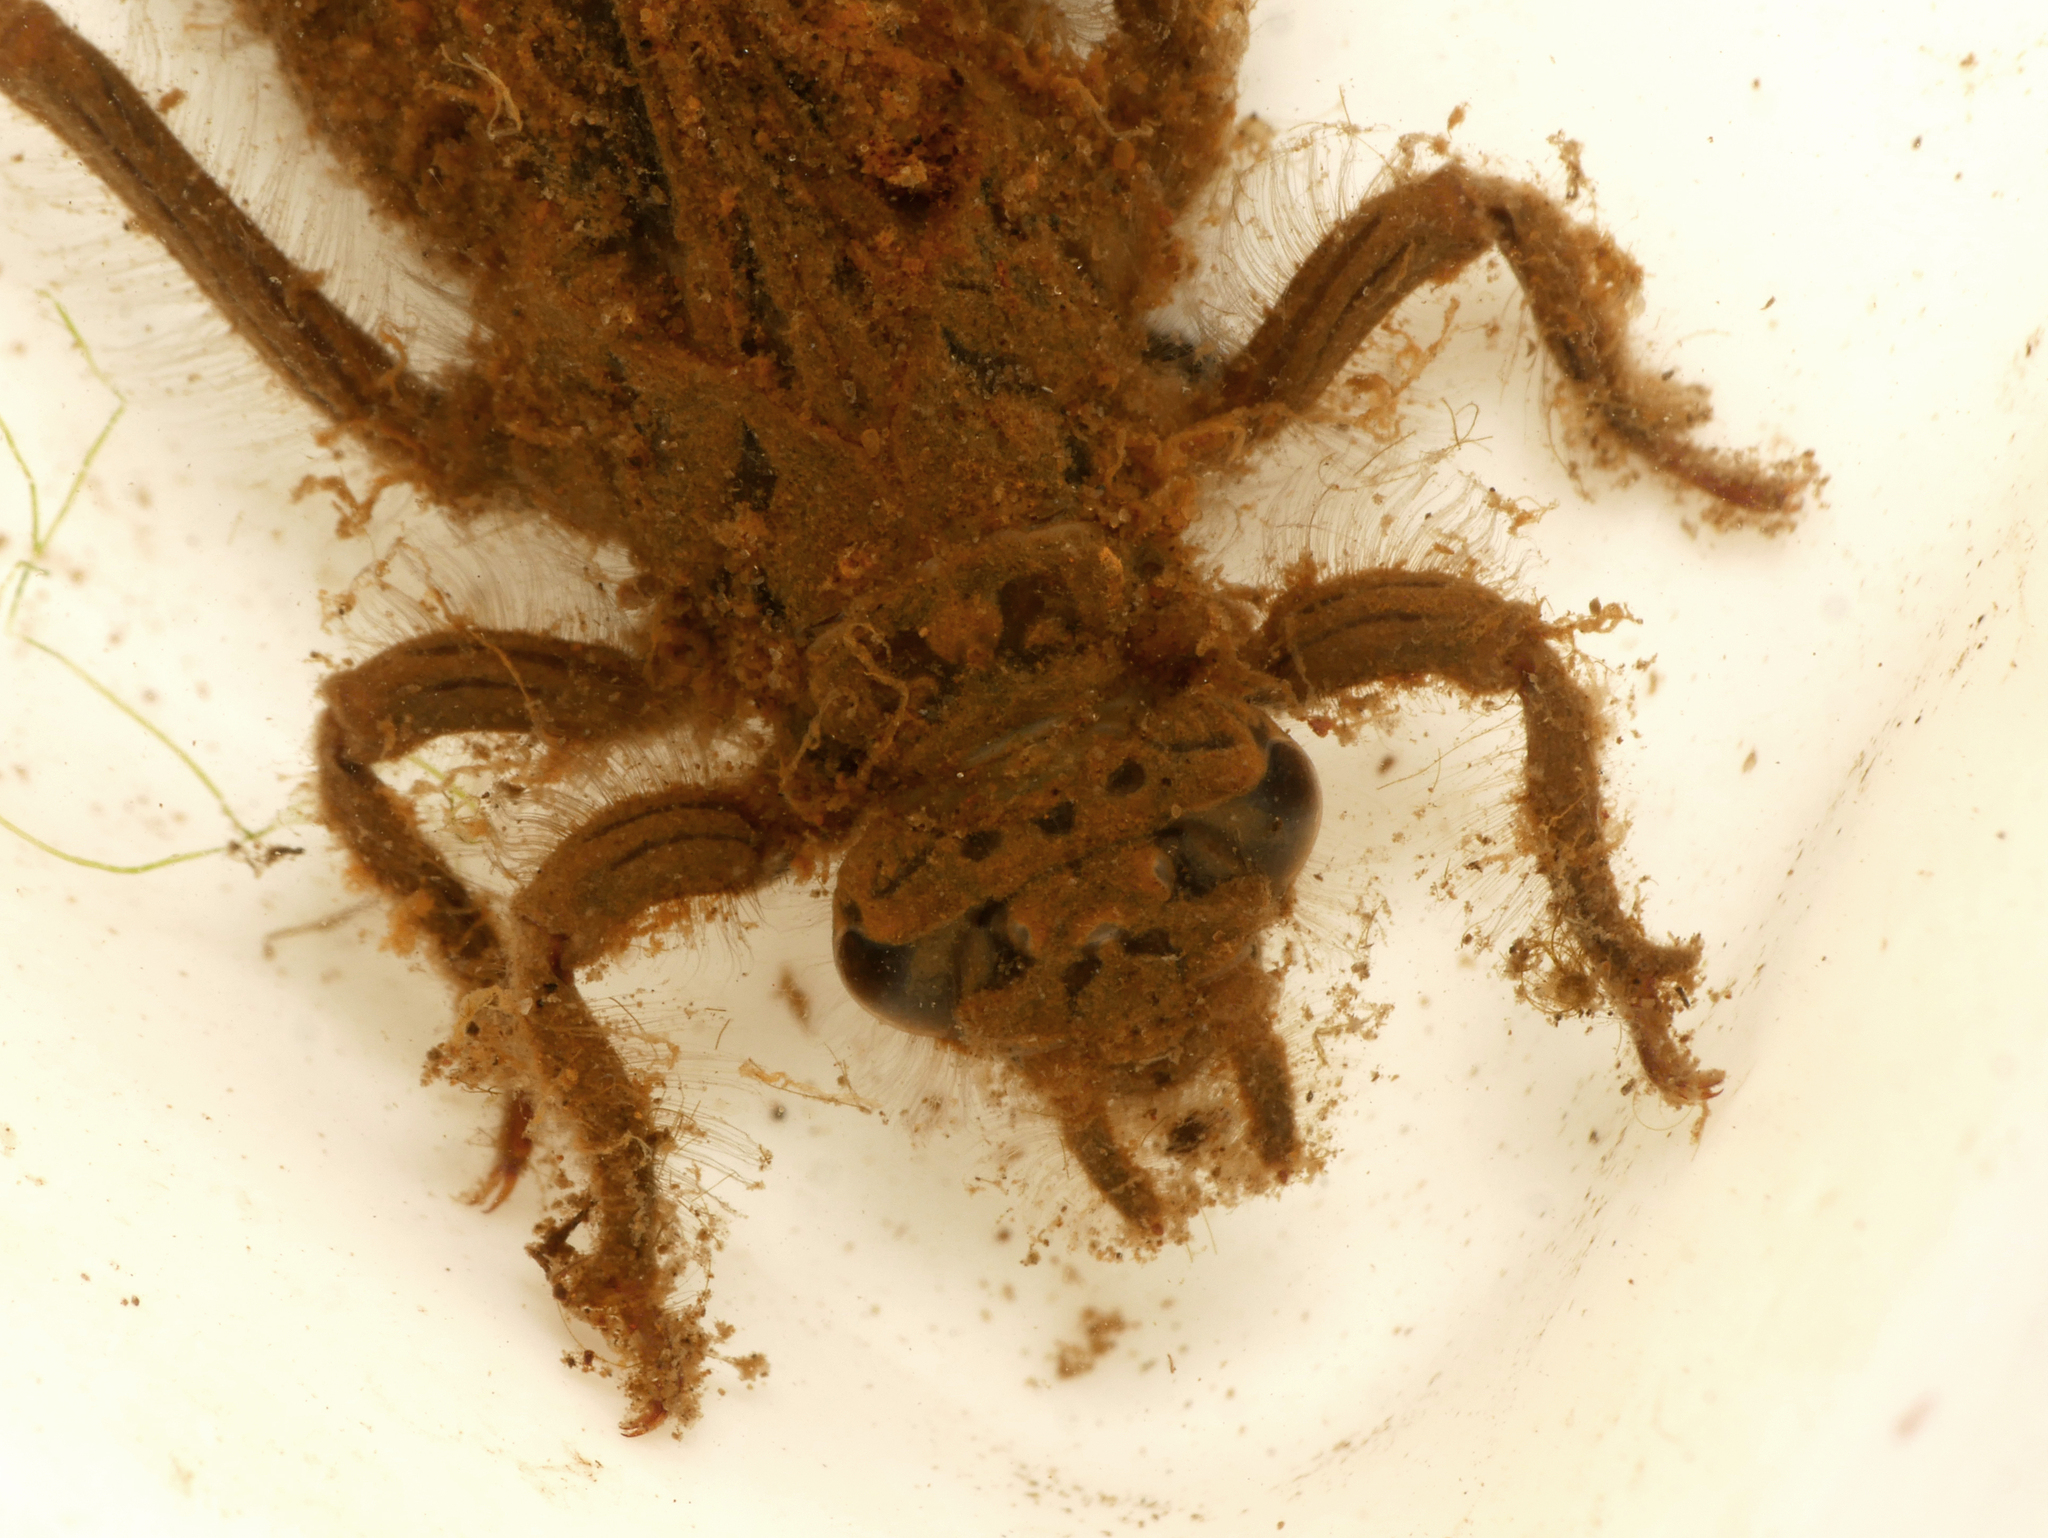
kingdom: Animalia
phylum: Arthropoda
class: Insecta
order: Odonata
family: Gomphidae
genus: Gomphus
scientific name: Gomphus vulgatissimus
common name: Club-tailed dragonfly
